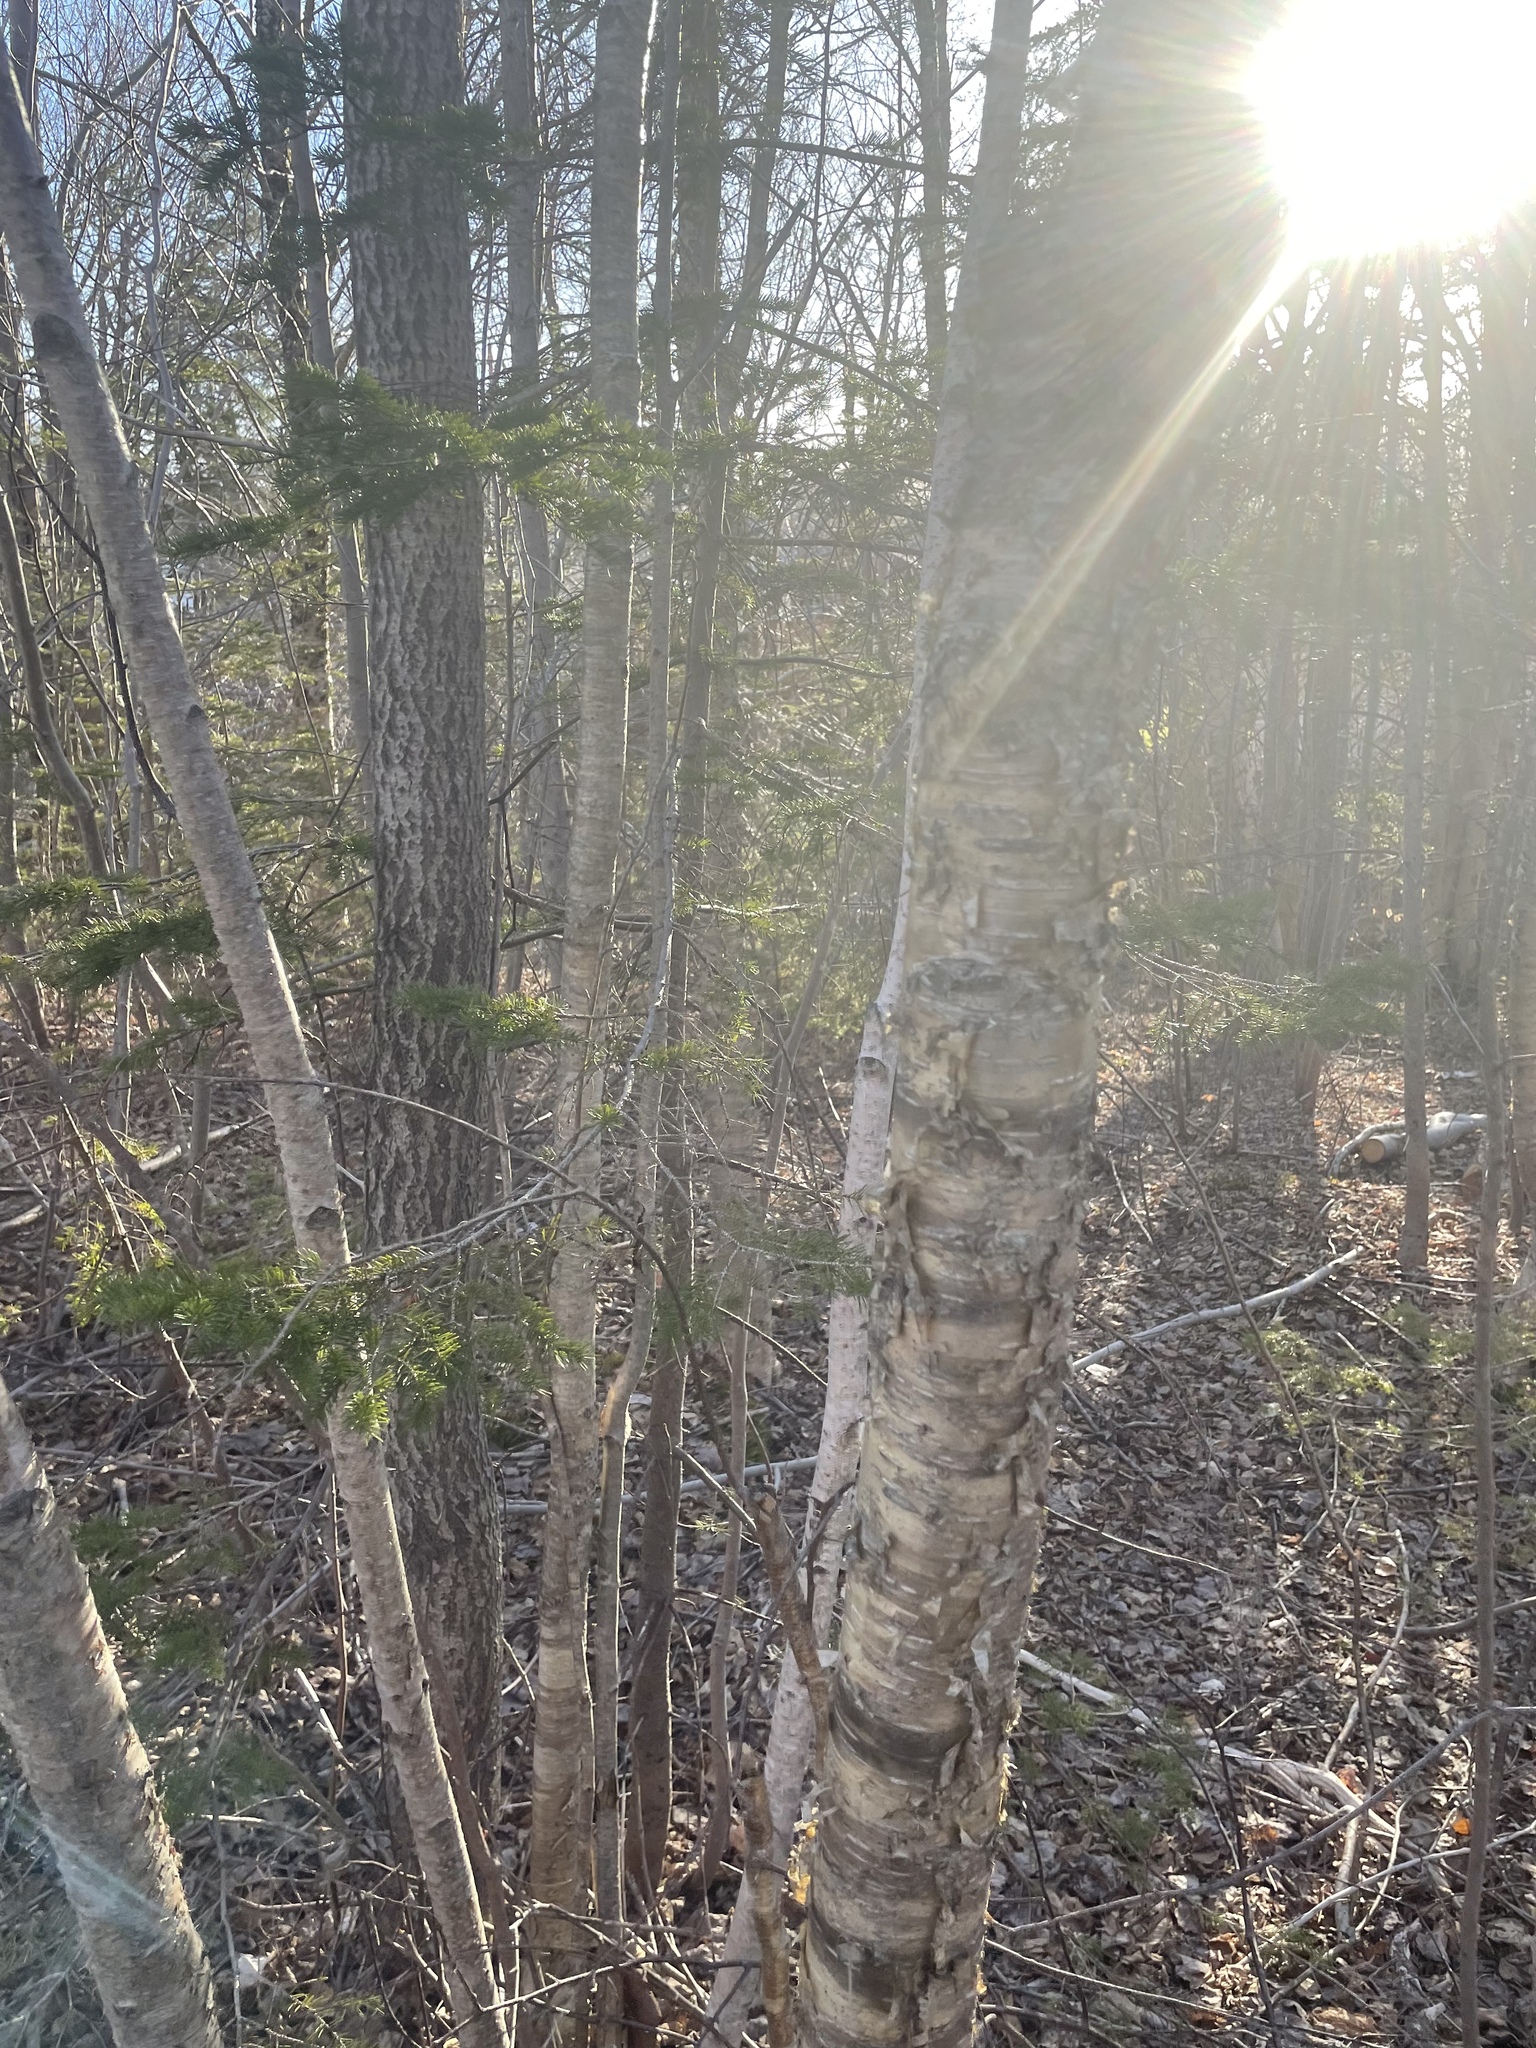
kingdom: Plantae
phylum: Tracheophyta
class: Magnoliopsida
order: Fagales
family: Betulaceae
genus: Betula
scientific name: Betula alleghaniensis
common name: Yellow birch
